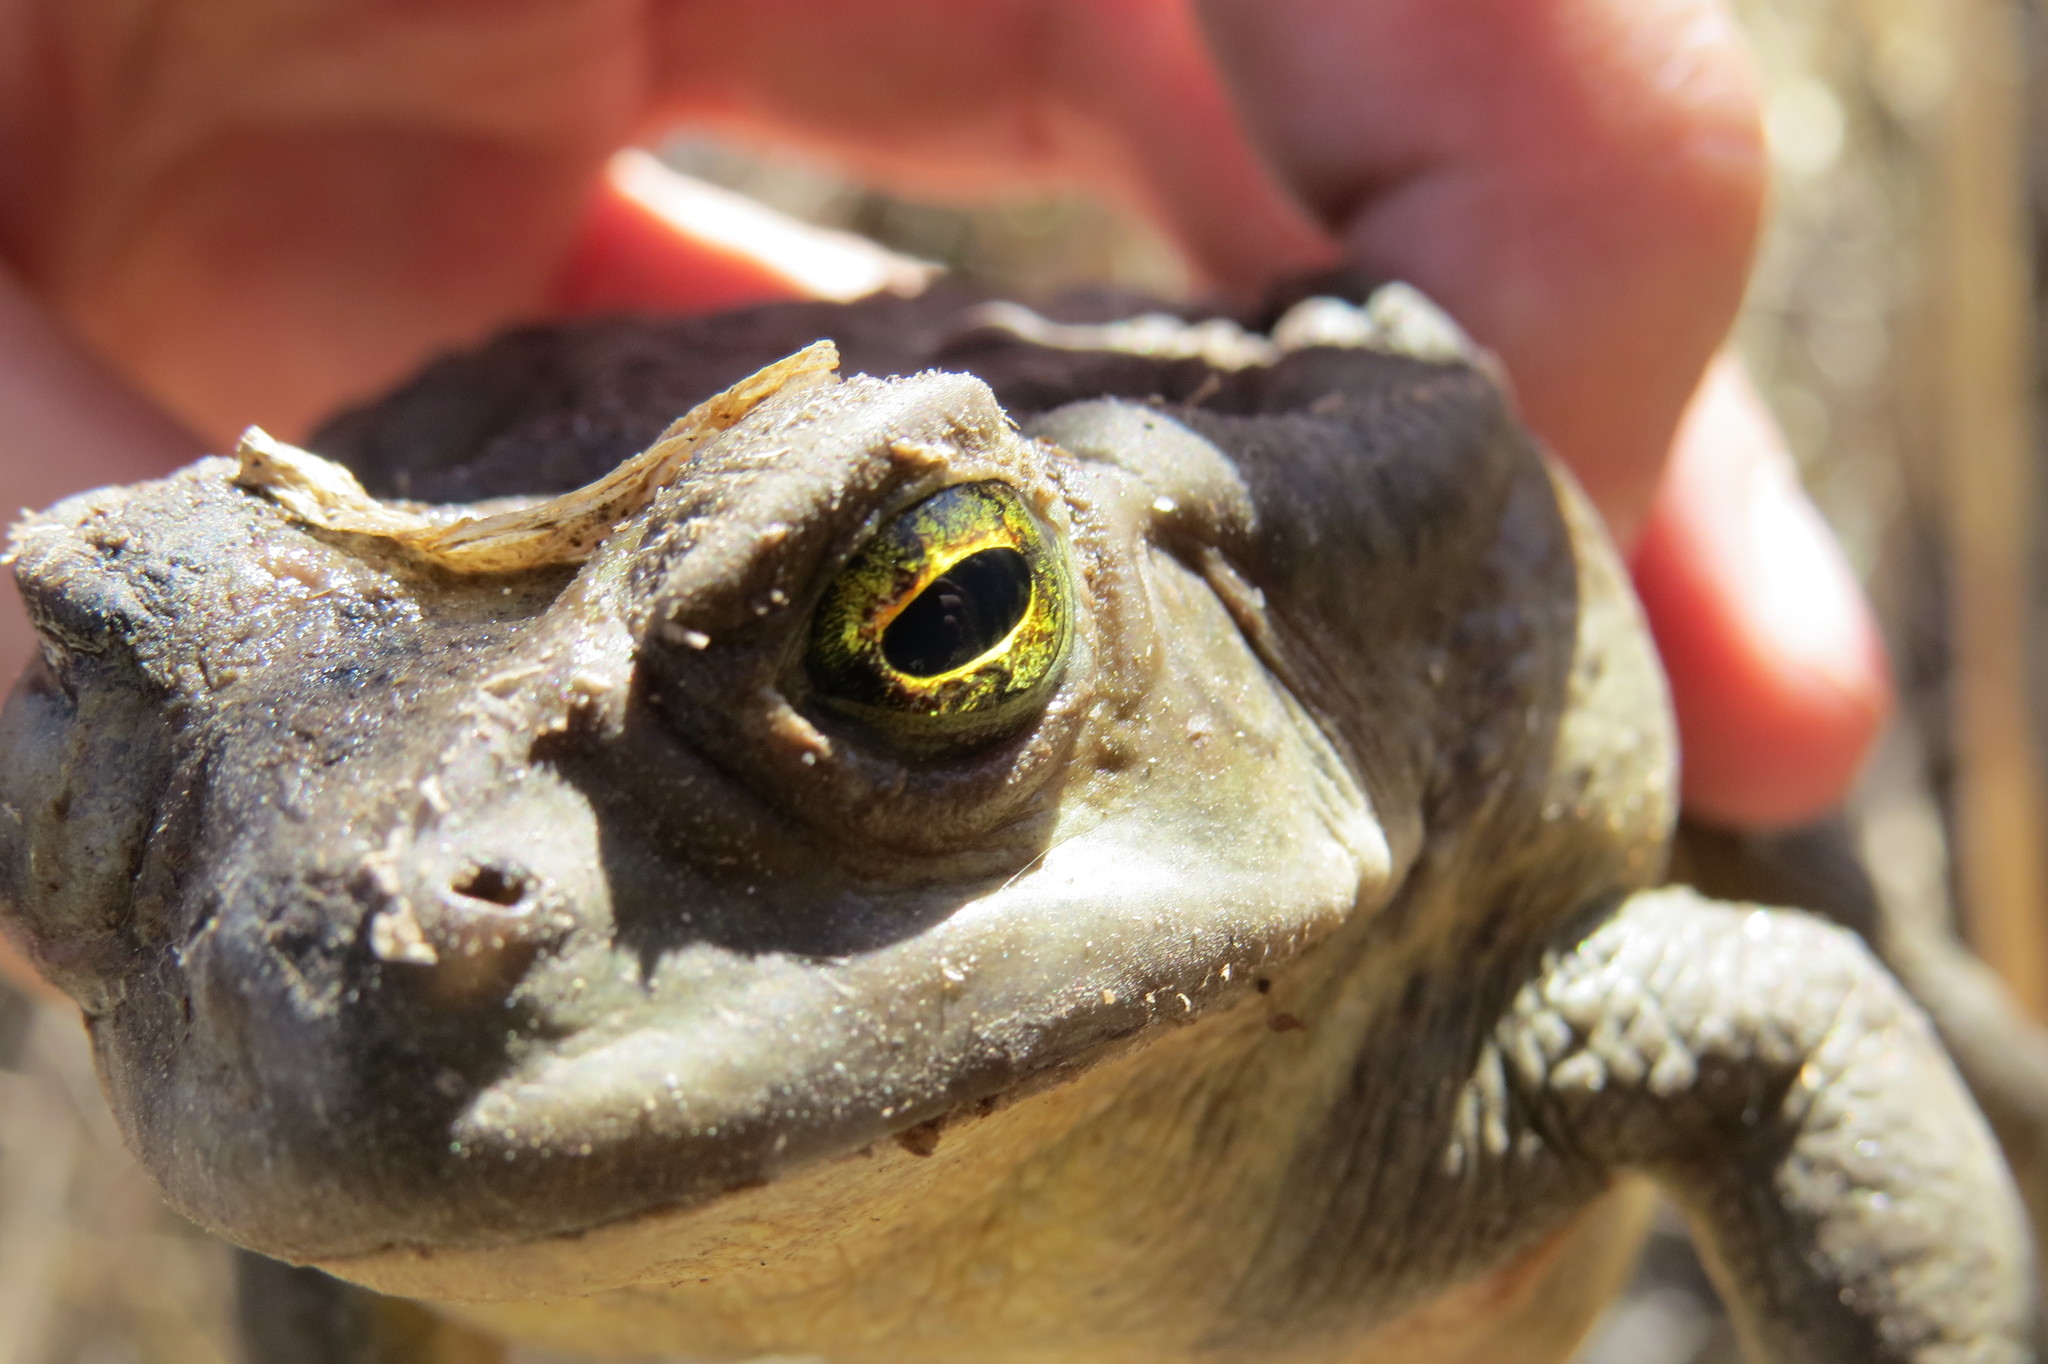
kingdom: Animalia
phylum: Chordata
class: Amphibia
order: Anura
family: Bufonidae
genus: Rhinella
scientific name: Rhinella arenarum
